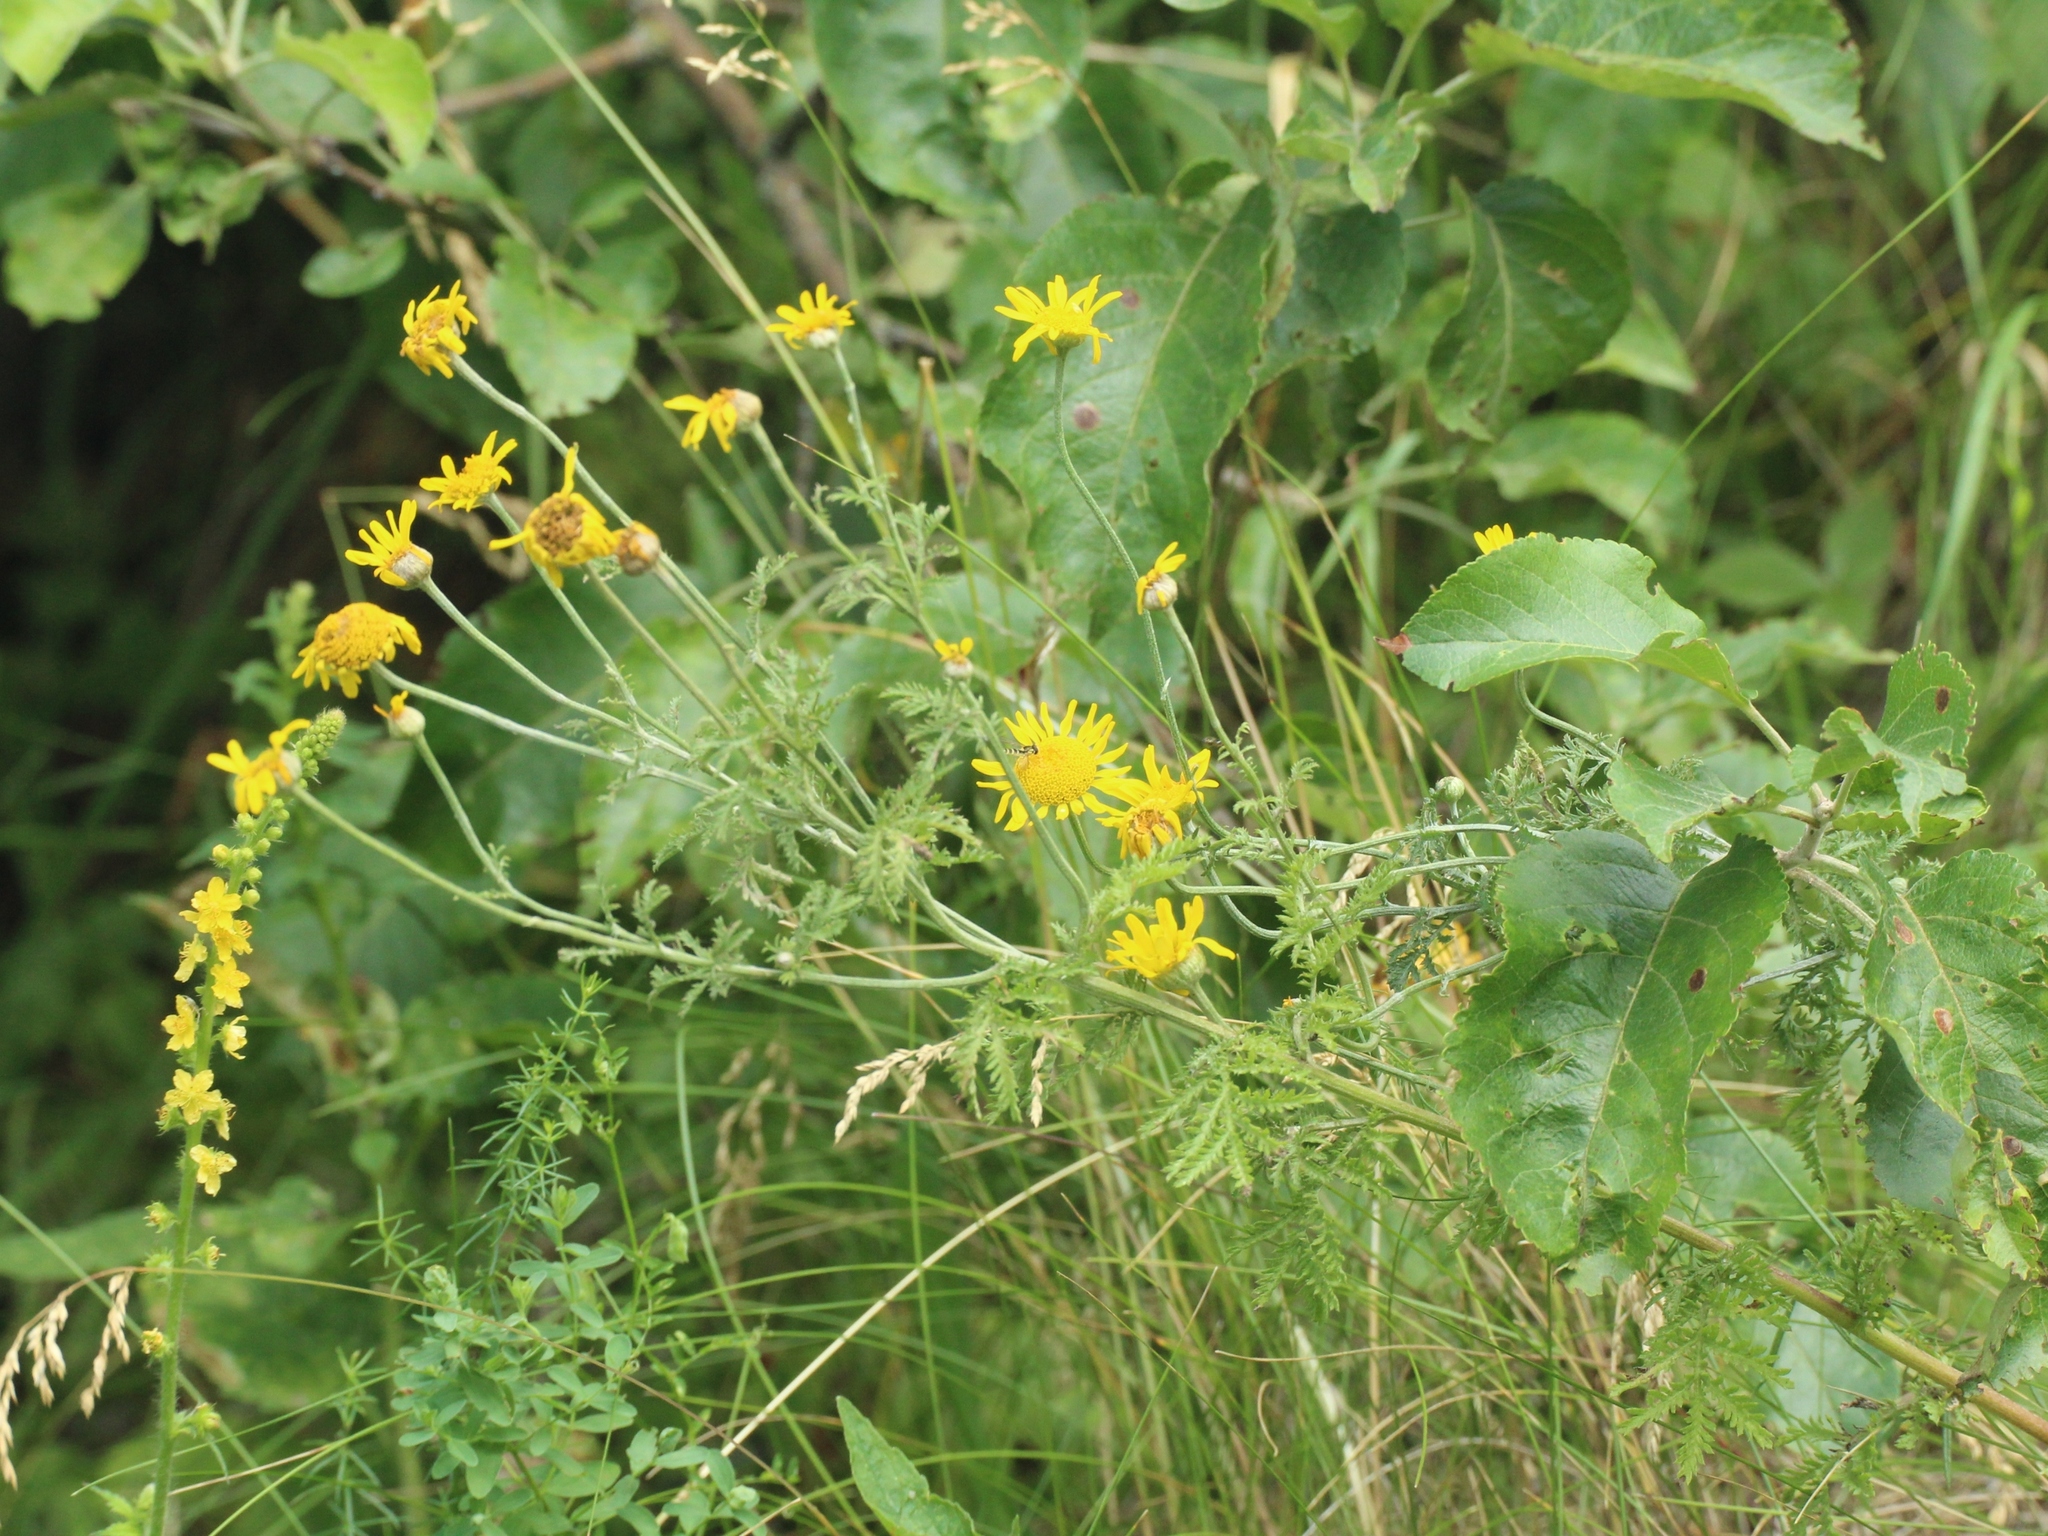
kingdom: Plantae
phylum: Tracheophyta
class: Magnoliopsida
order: Asterales
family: Asteraceae
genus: Cota
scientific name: Cota tinctoria
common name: Golden chamomile
